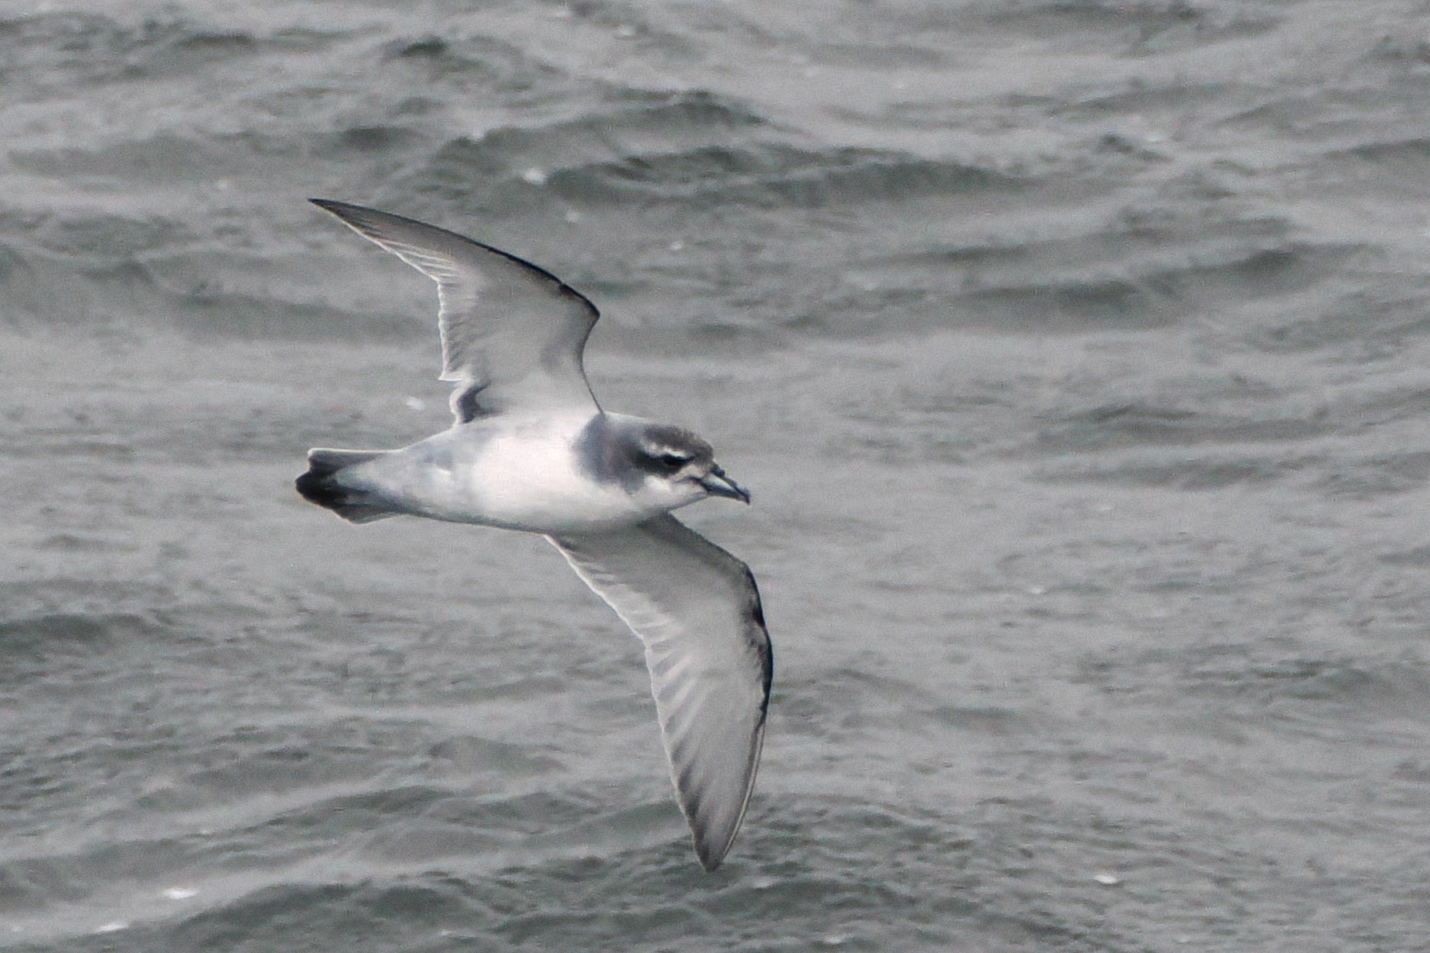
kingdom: Animalia
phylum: Chordata
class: Aves
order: Procellariiformes
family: Procellariidae
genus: Pachyptila
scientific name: Pachyptila desolata
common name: Antarctic prion
